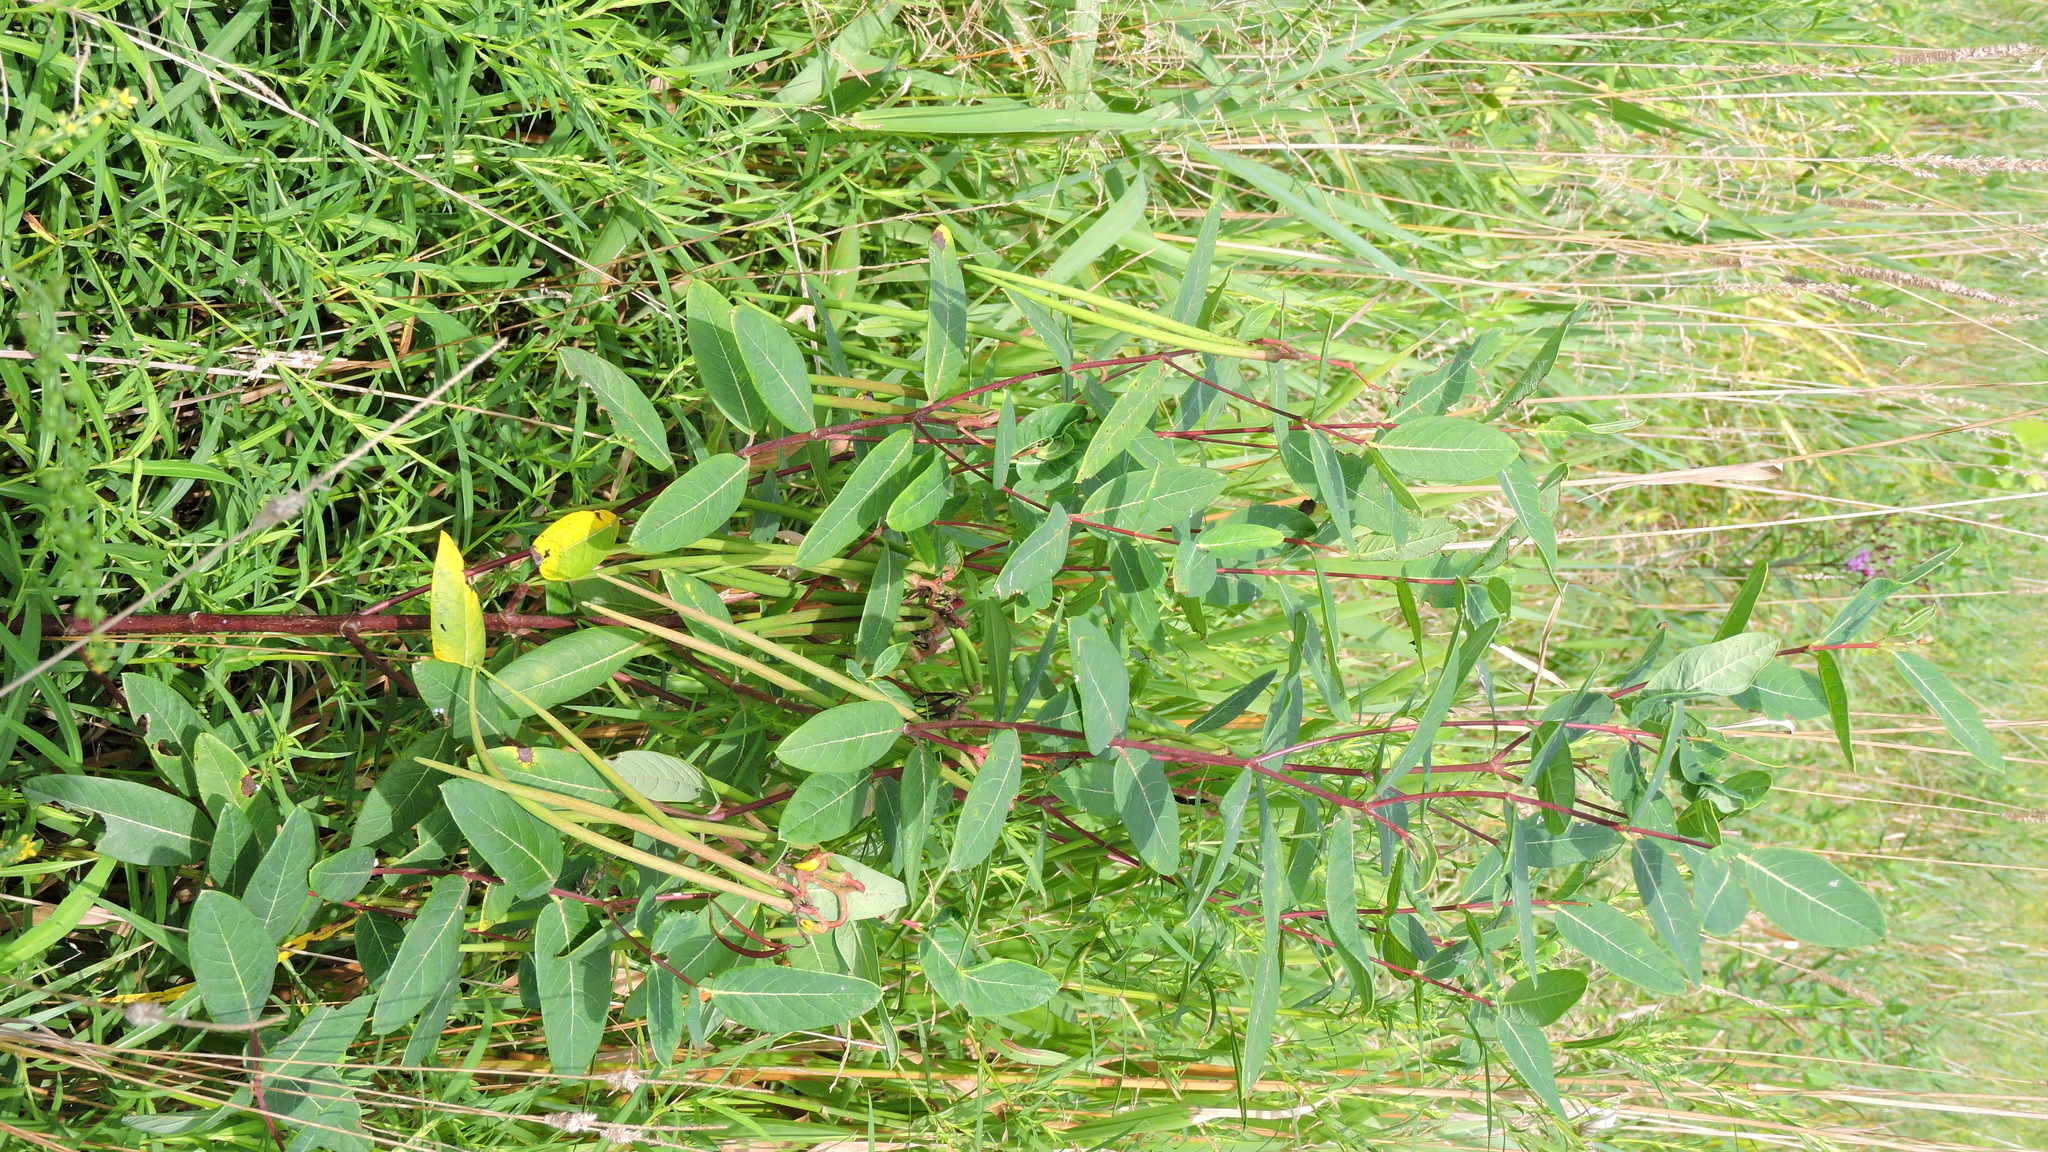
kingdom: Plantae
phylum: Tracheophyta
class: Magnoliopsida
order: Gentianales
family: Apocynaceae
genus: Apocynum
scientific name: Apocynum cannabinum
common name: Hemp dogbane
